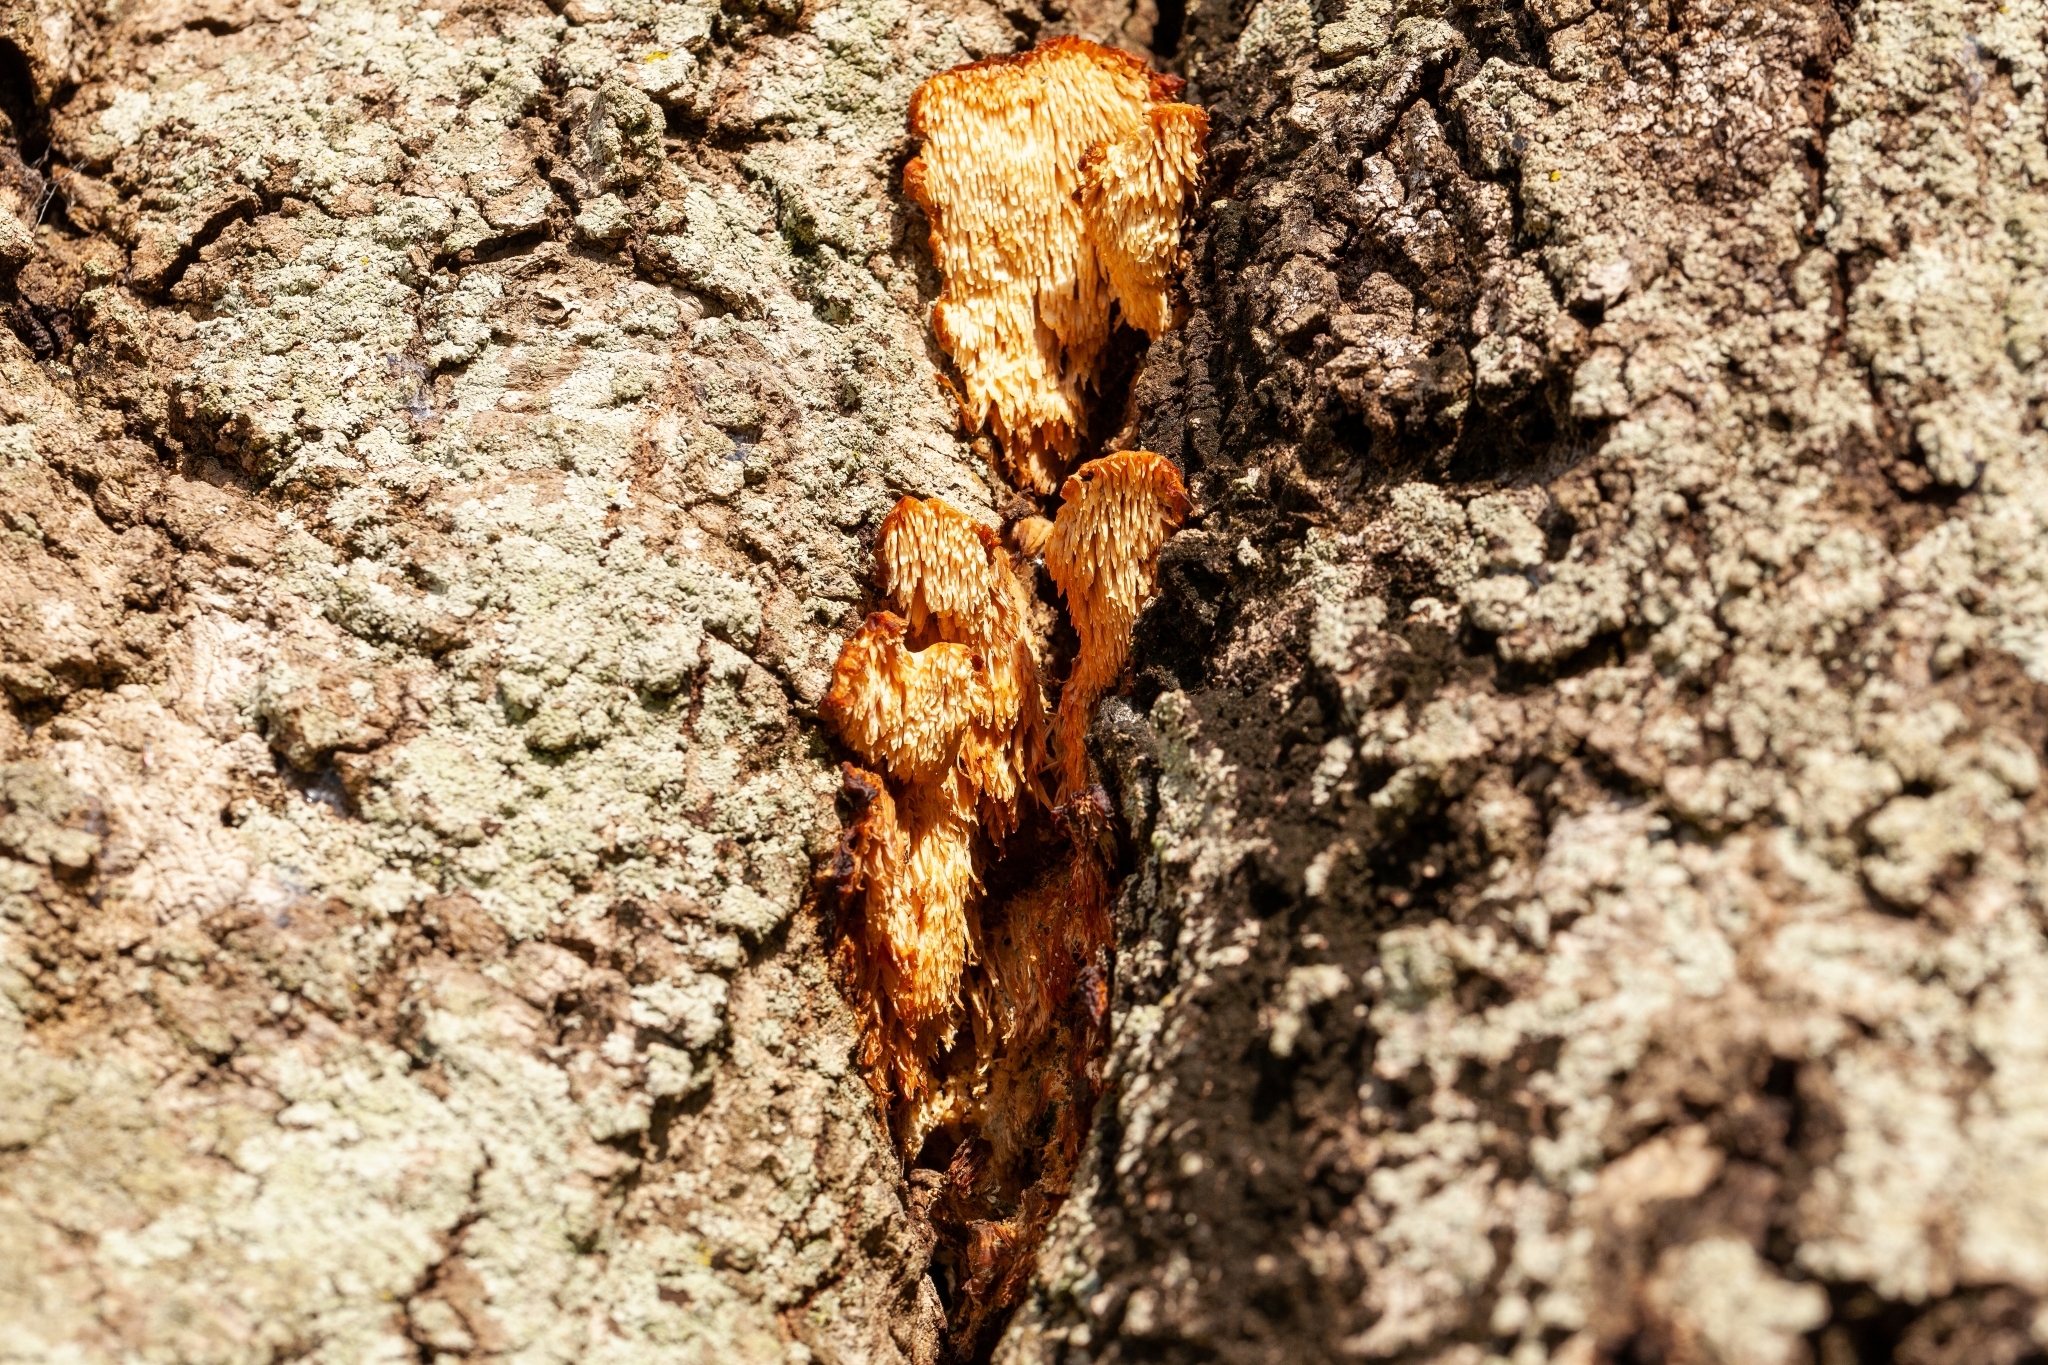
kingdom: Fungi
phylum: Basidiomycota
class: Agaricomycetes
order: Polyporales
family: Meruliaceae
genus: Irpiciporus
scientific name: Irpiciporus pachyodon
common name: Marshmallow polypore
